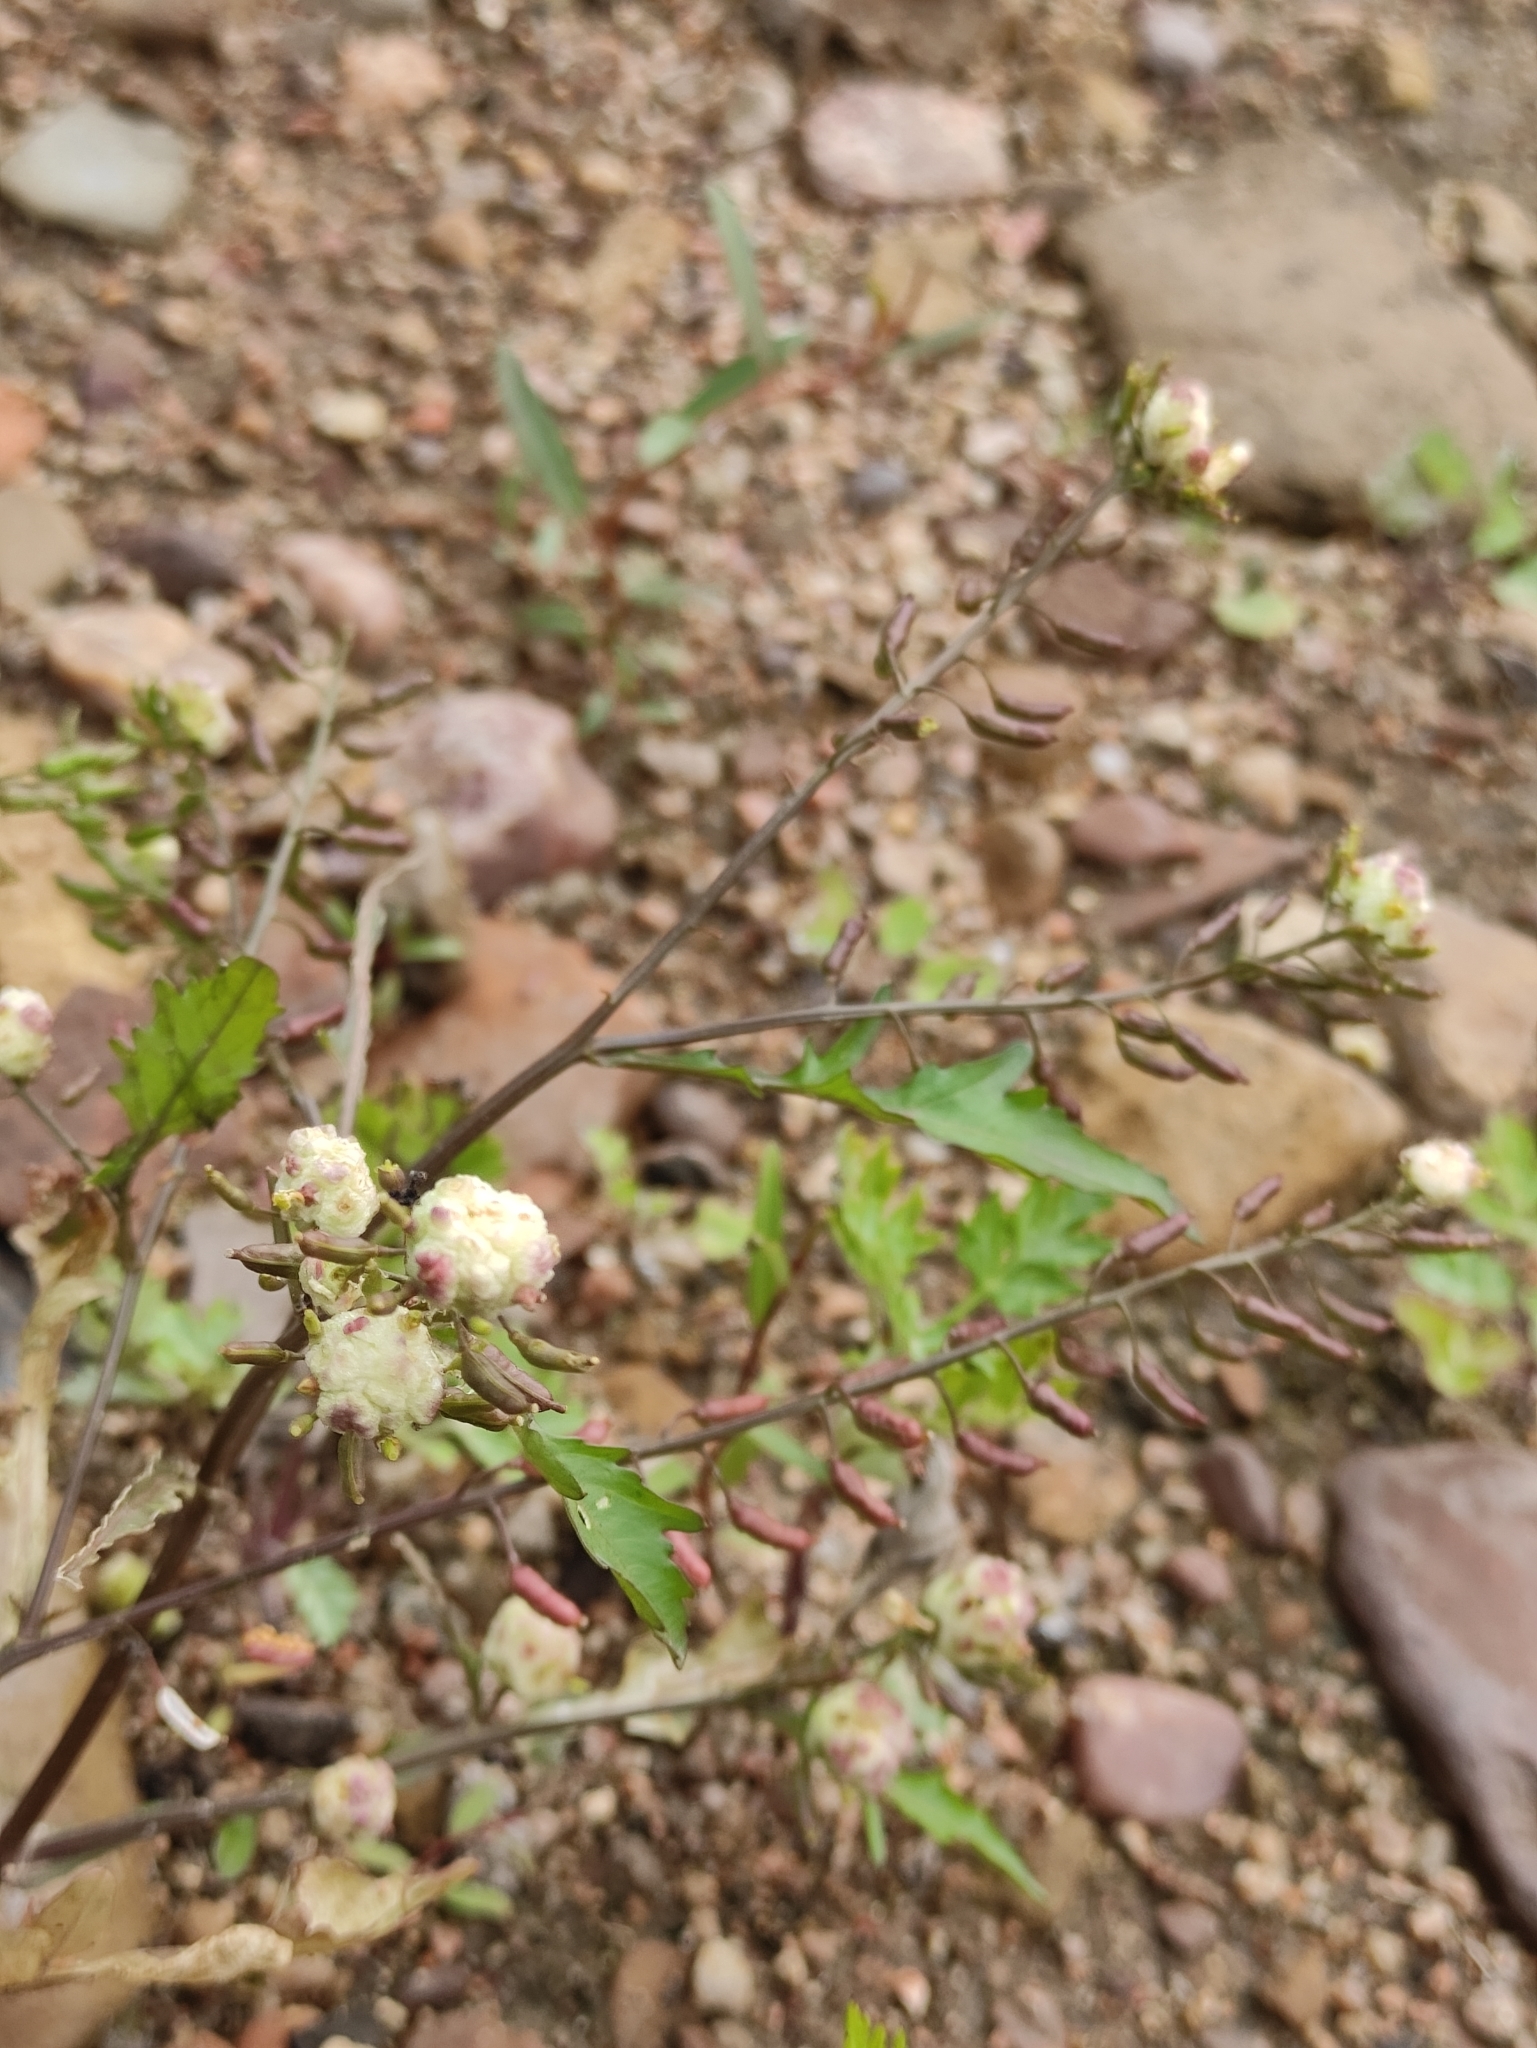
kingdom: Plantae
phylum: Tracheophyta
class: Magnoliopsida
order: Brassicales
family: Brassicaceae
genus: Rorippa
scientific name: Rorippa palustris
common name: Marsh yellow-cress
